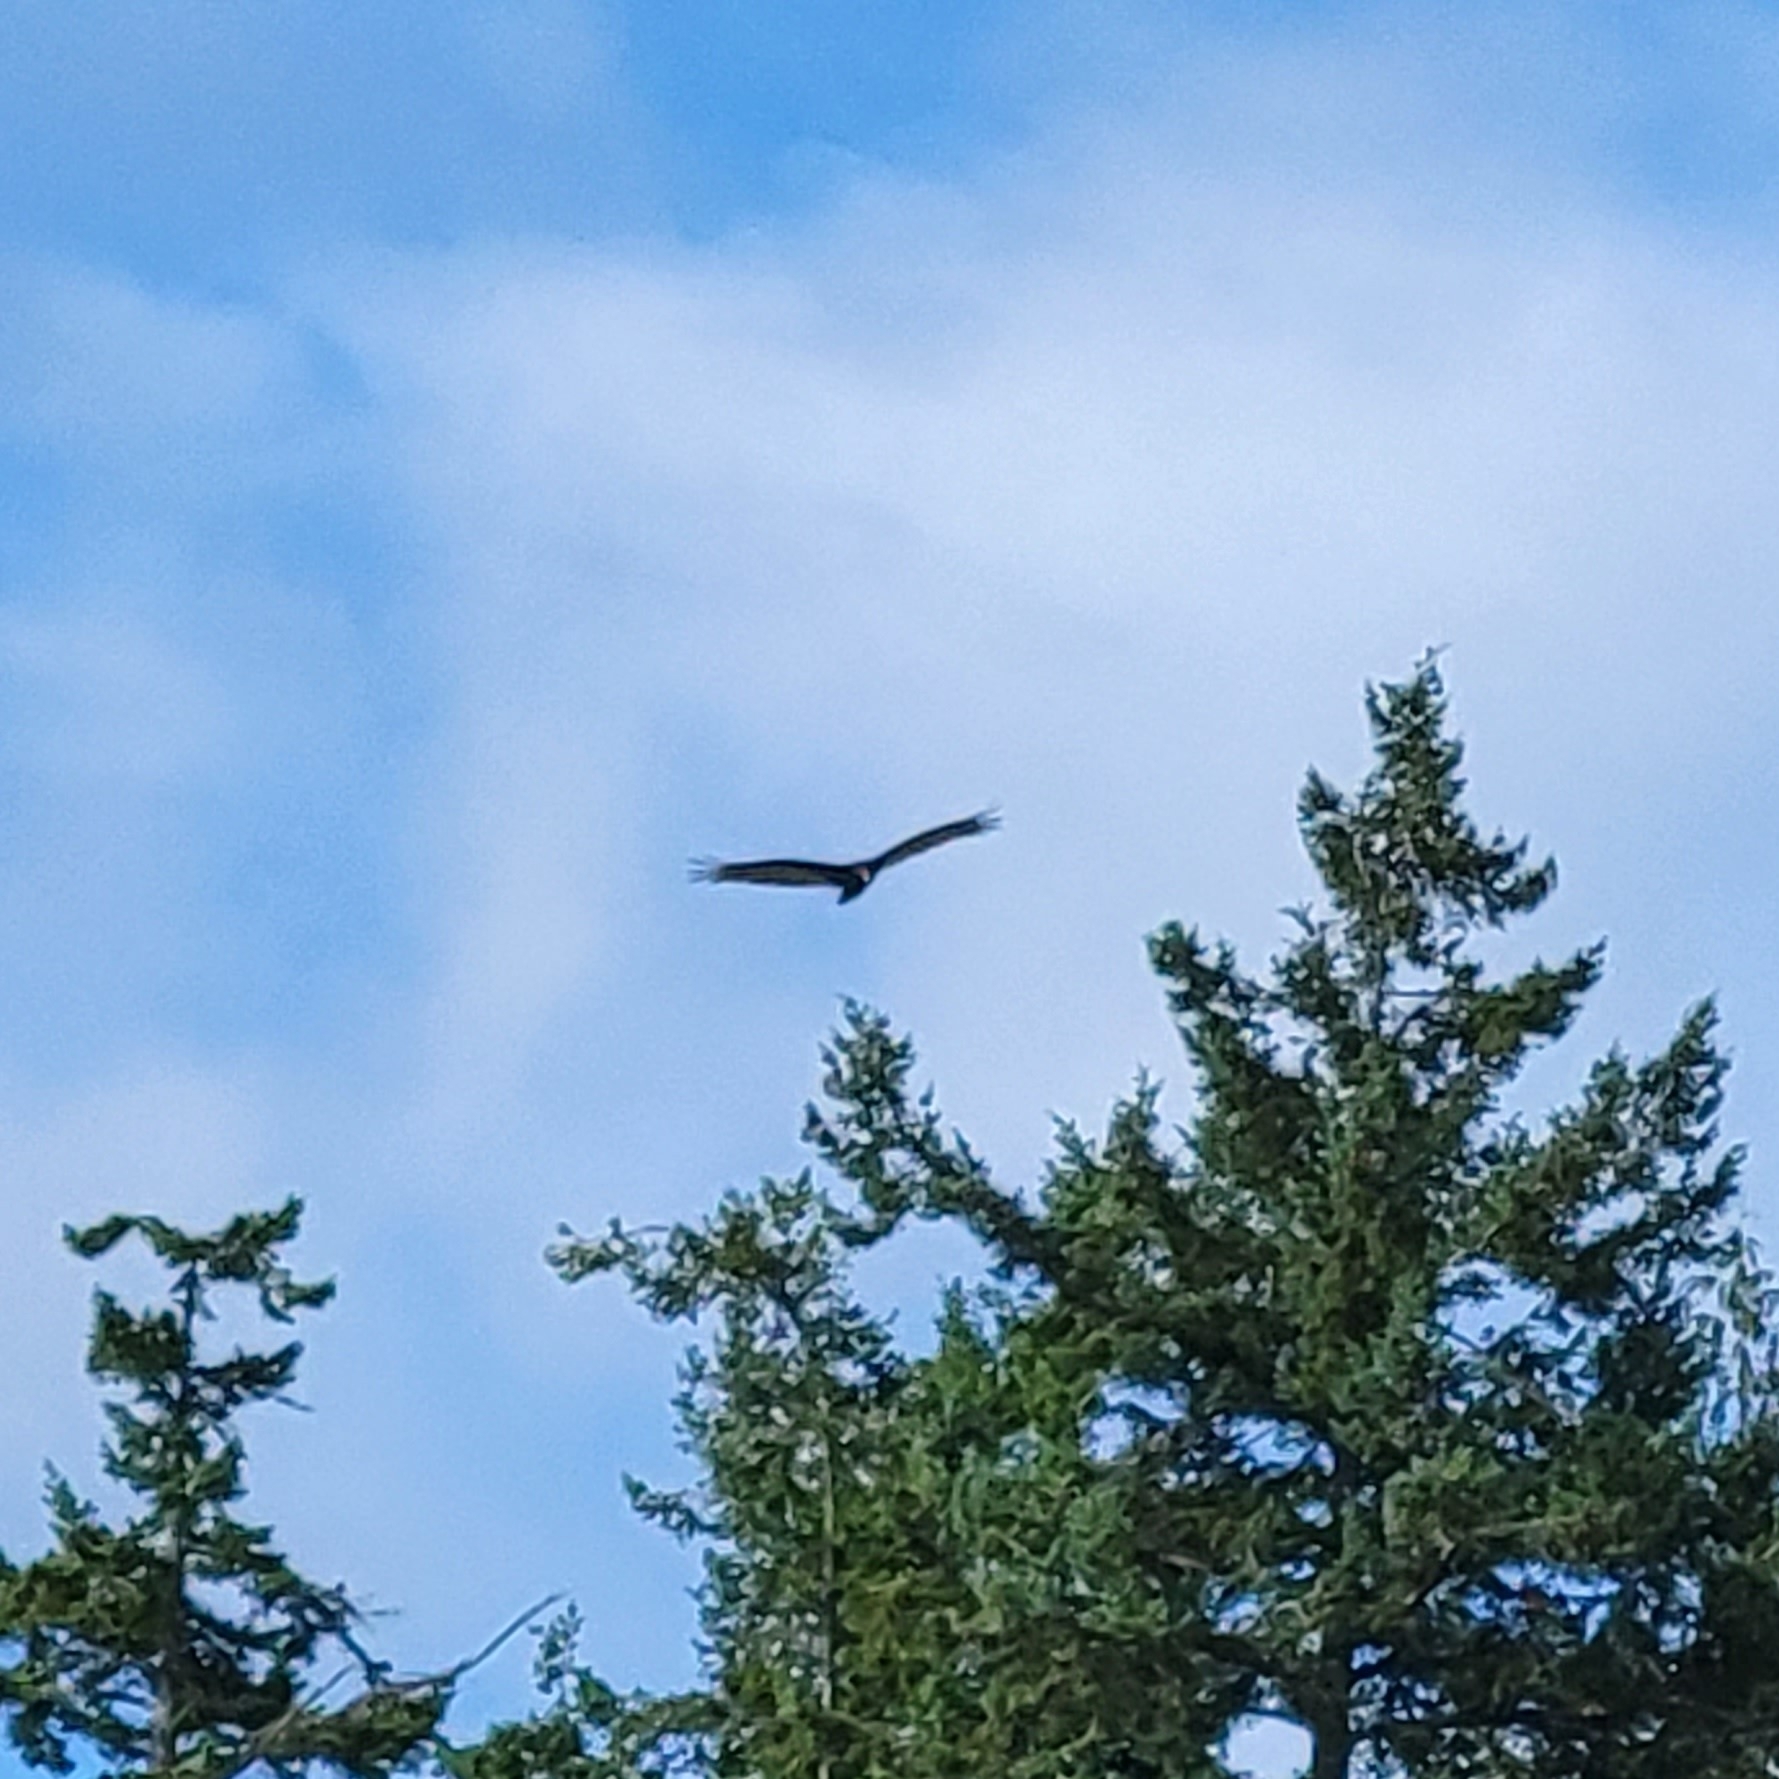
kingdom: Animalia
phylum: Chordata
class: Aves
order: Accipitriformes
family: Cathartidae
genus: Cathartes
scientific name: Cathartes aura
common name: Turkey vulture
